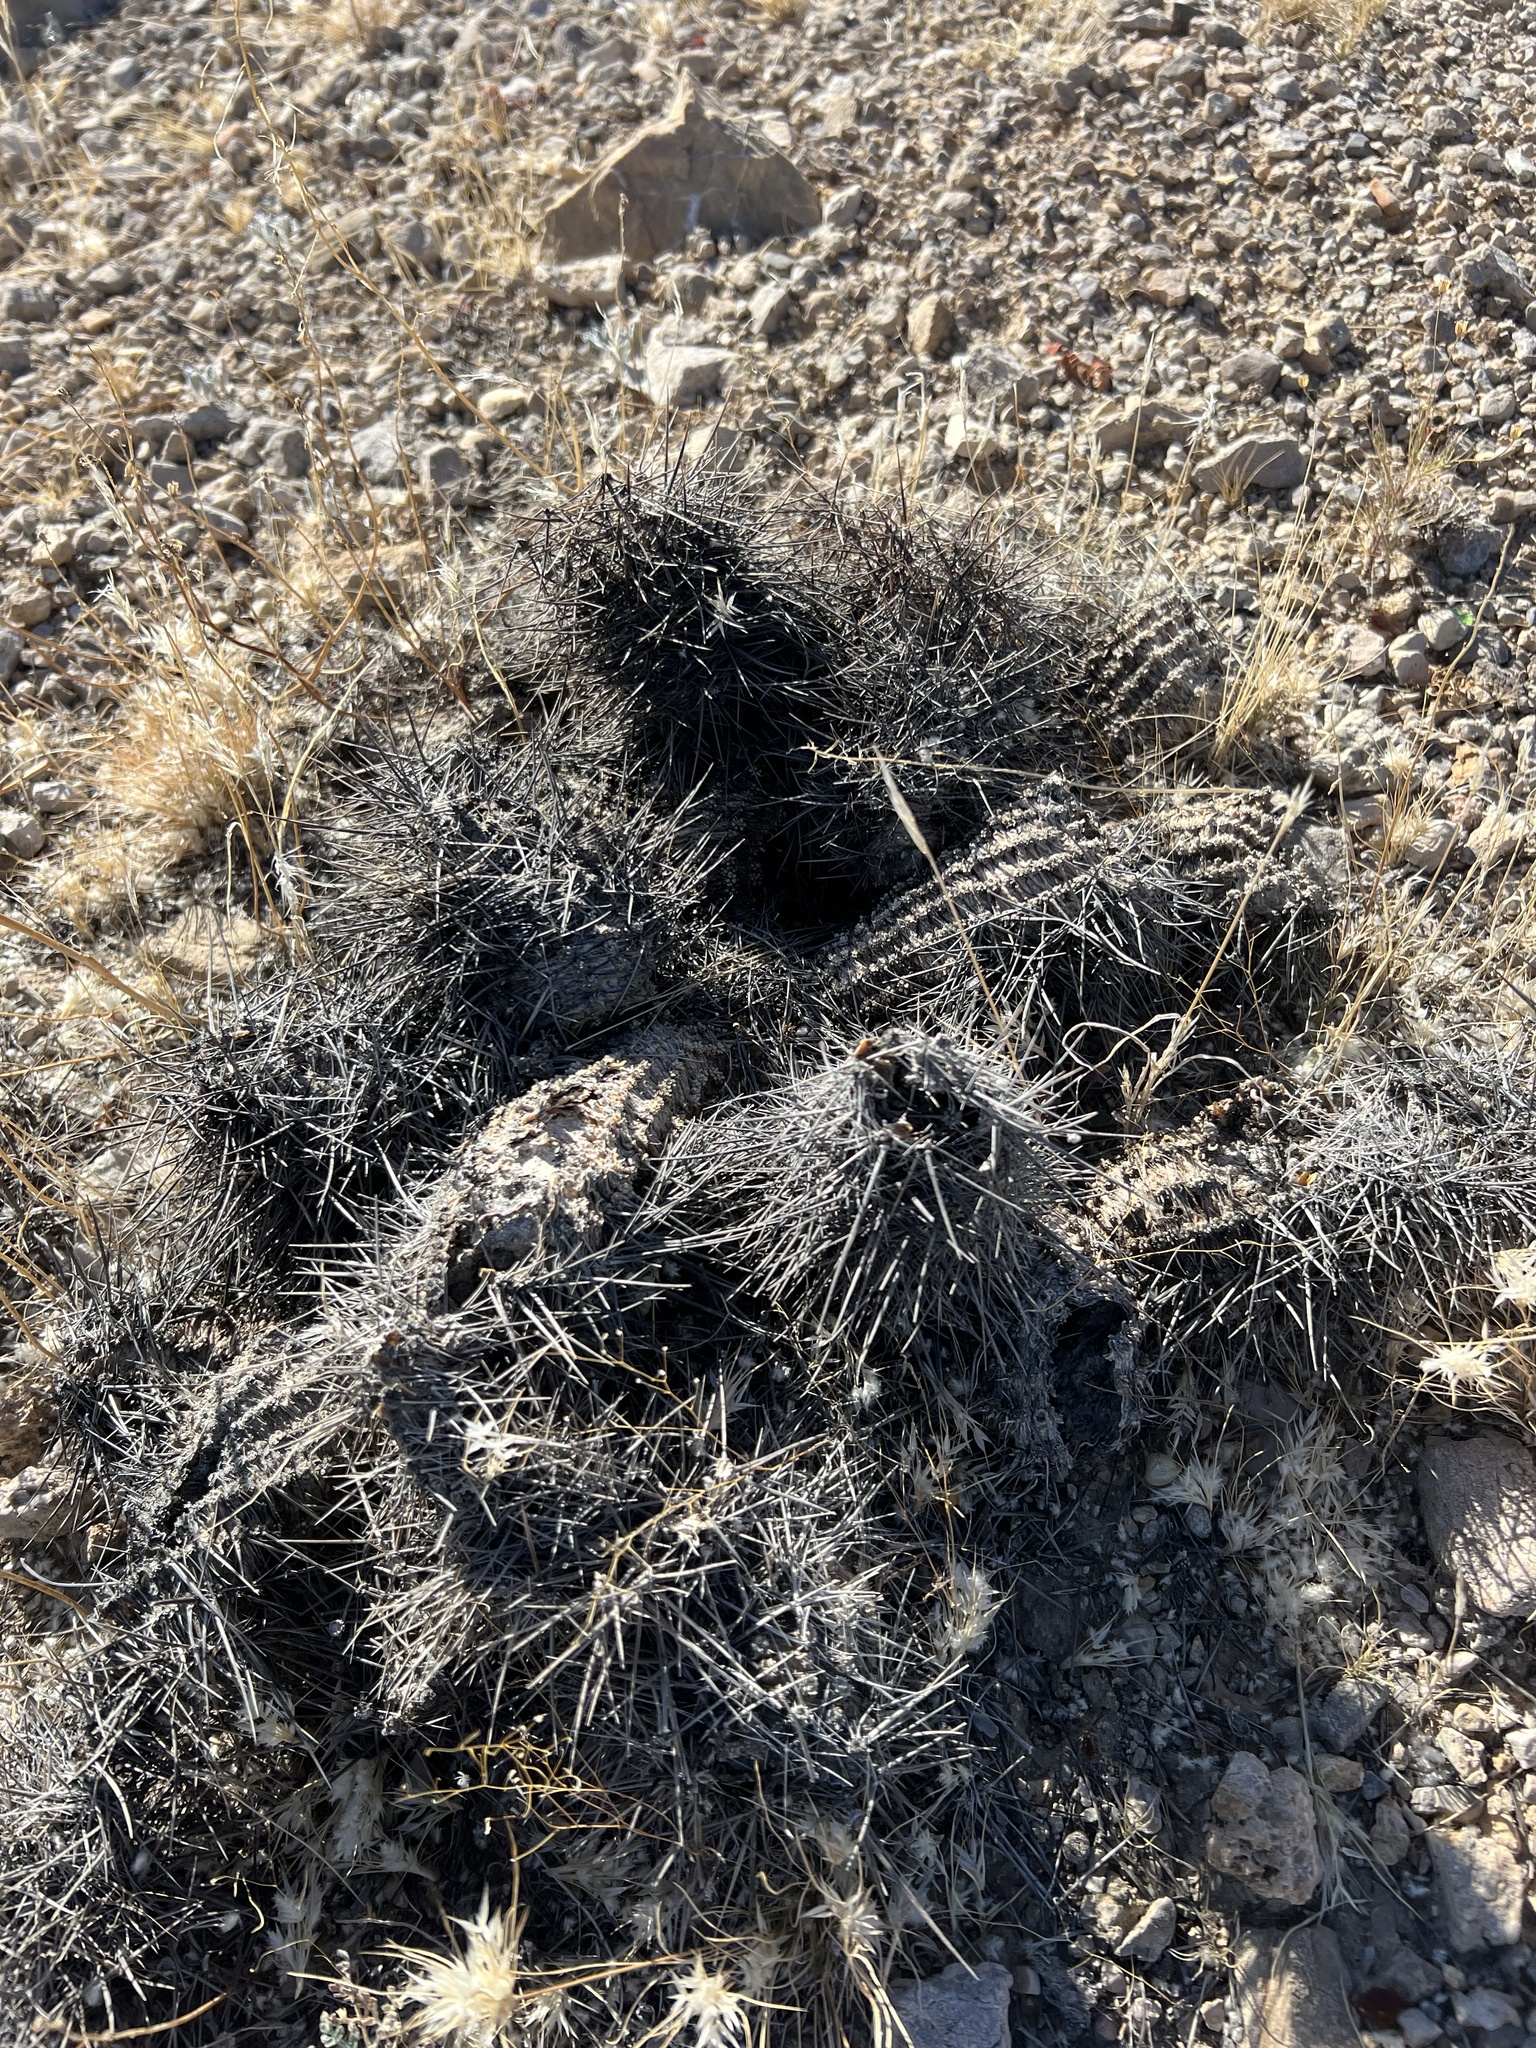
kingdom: Plantae
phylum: Tracheophyta
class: Magnoliopsida
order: Caryophyllales
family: Cactaceae
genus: Echinocereus
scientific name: Echinocereus engelmannii
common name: Engelmann's hedgehog cactus
